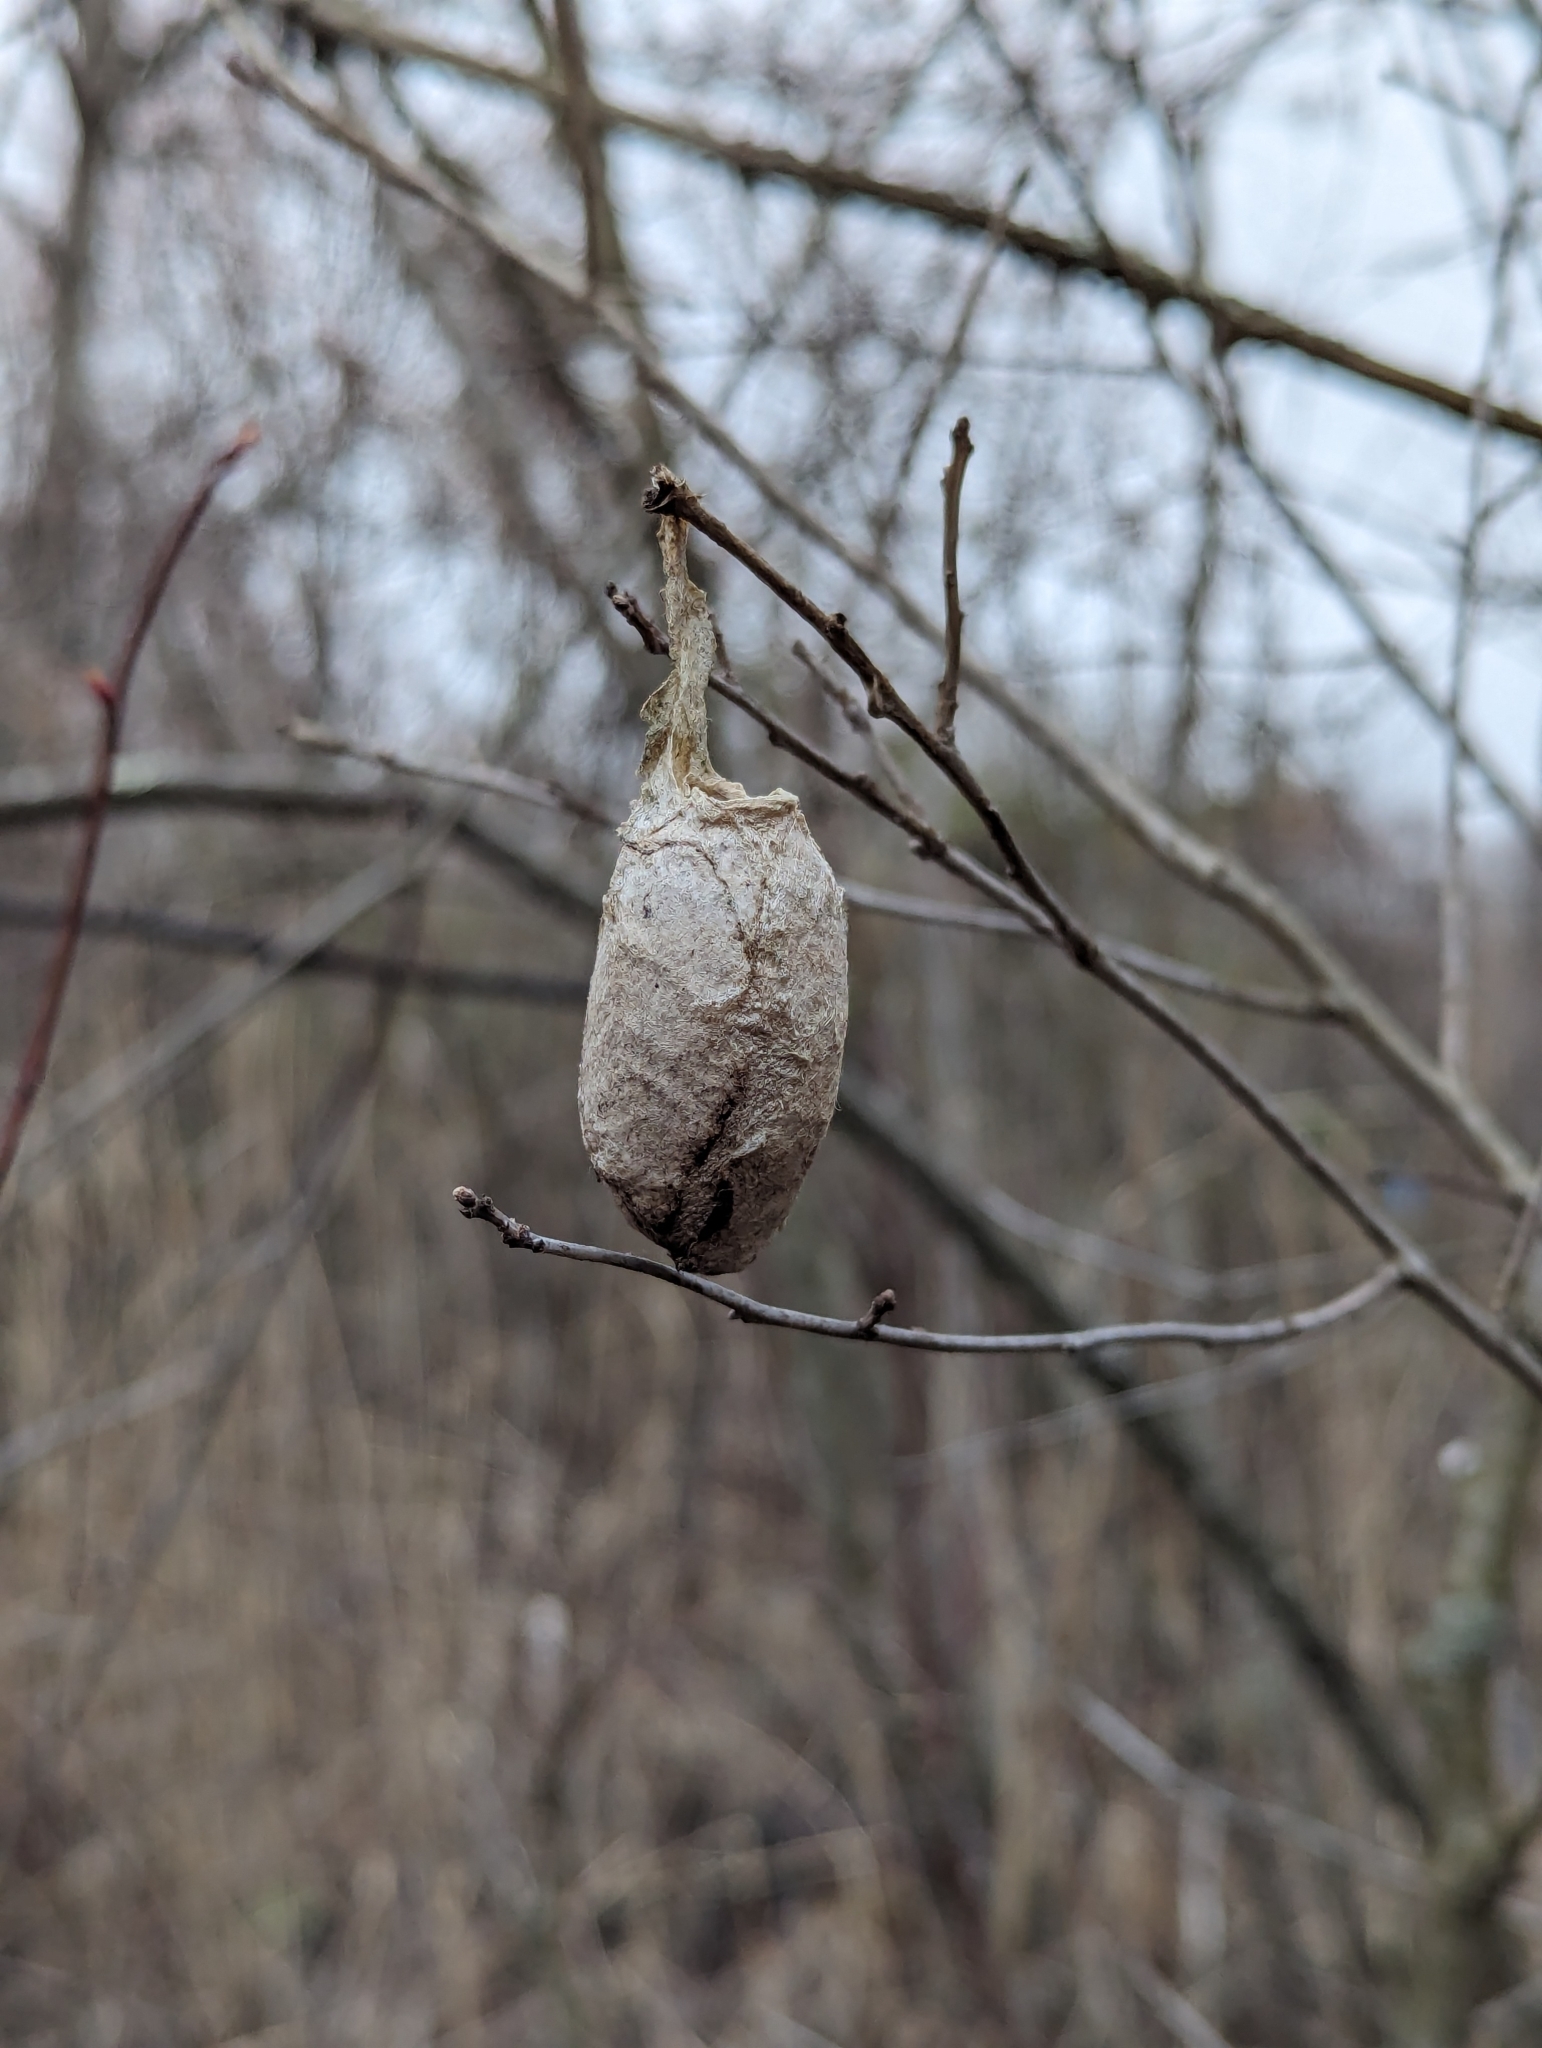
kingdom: Animalia
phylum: Arthropoda
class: Insecta
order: Lepidoptera
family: Saturniidae
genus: Antheraea
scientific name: Antheraea polyphemus
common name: Polyphemus moth
